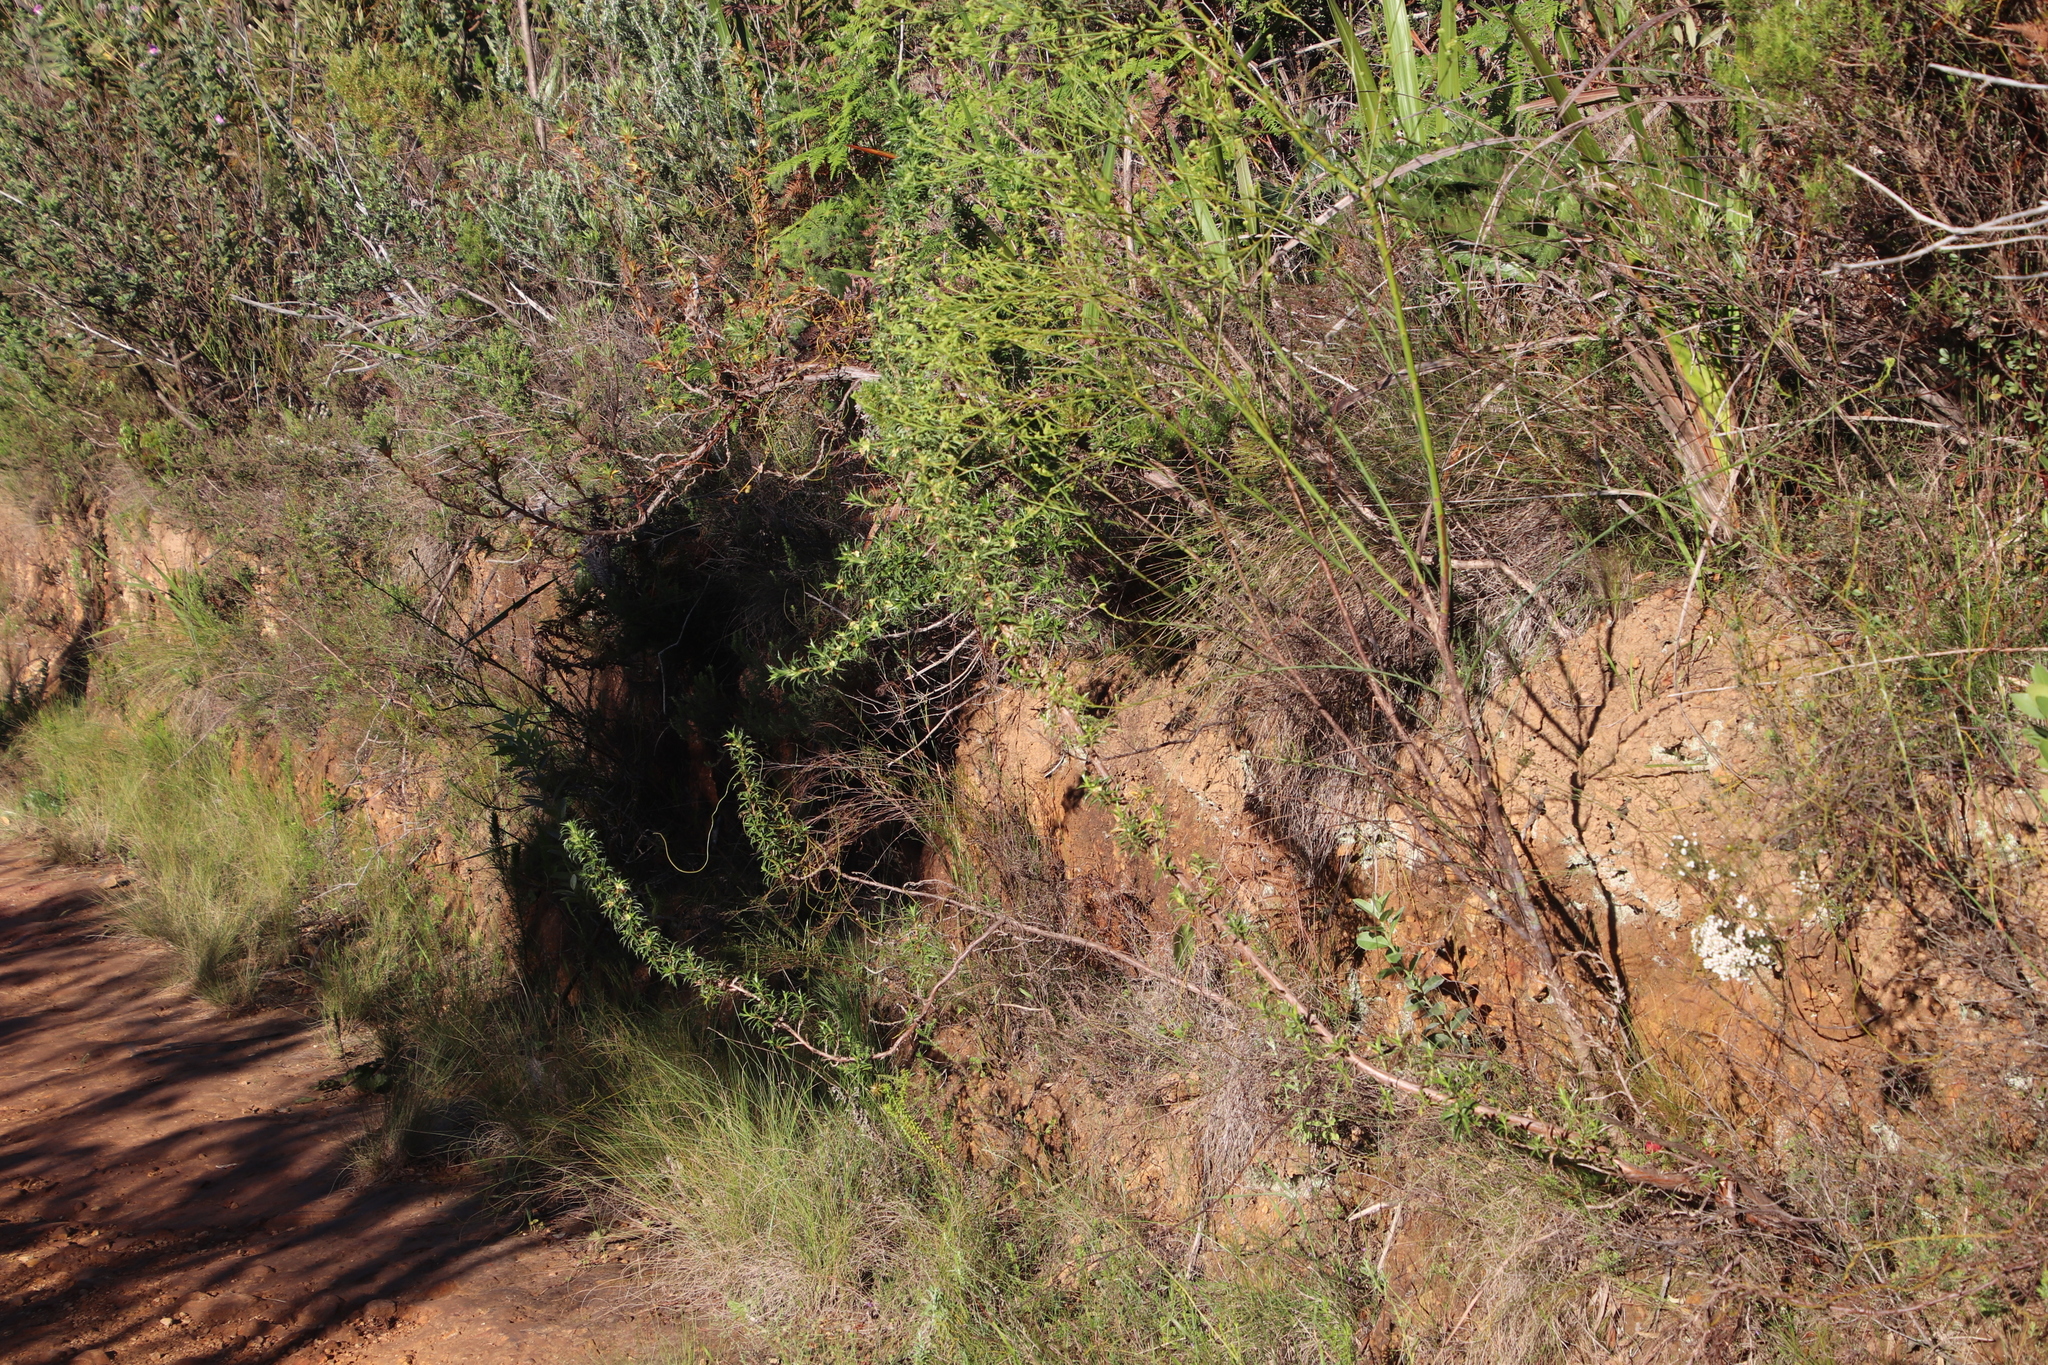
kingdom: Plantae
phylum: Tracheophyta
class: Magnoliopsida
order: Rosales
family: Rosaceae
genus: Cliffortia
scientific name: Cliffortia phillipsii
